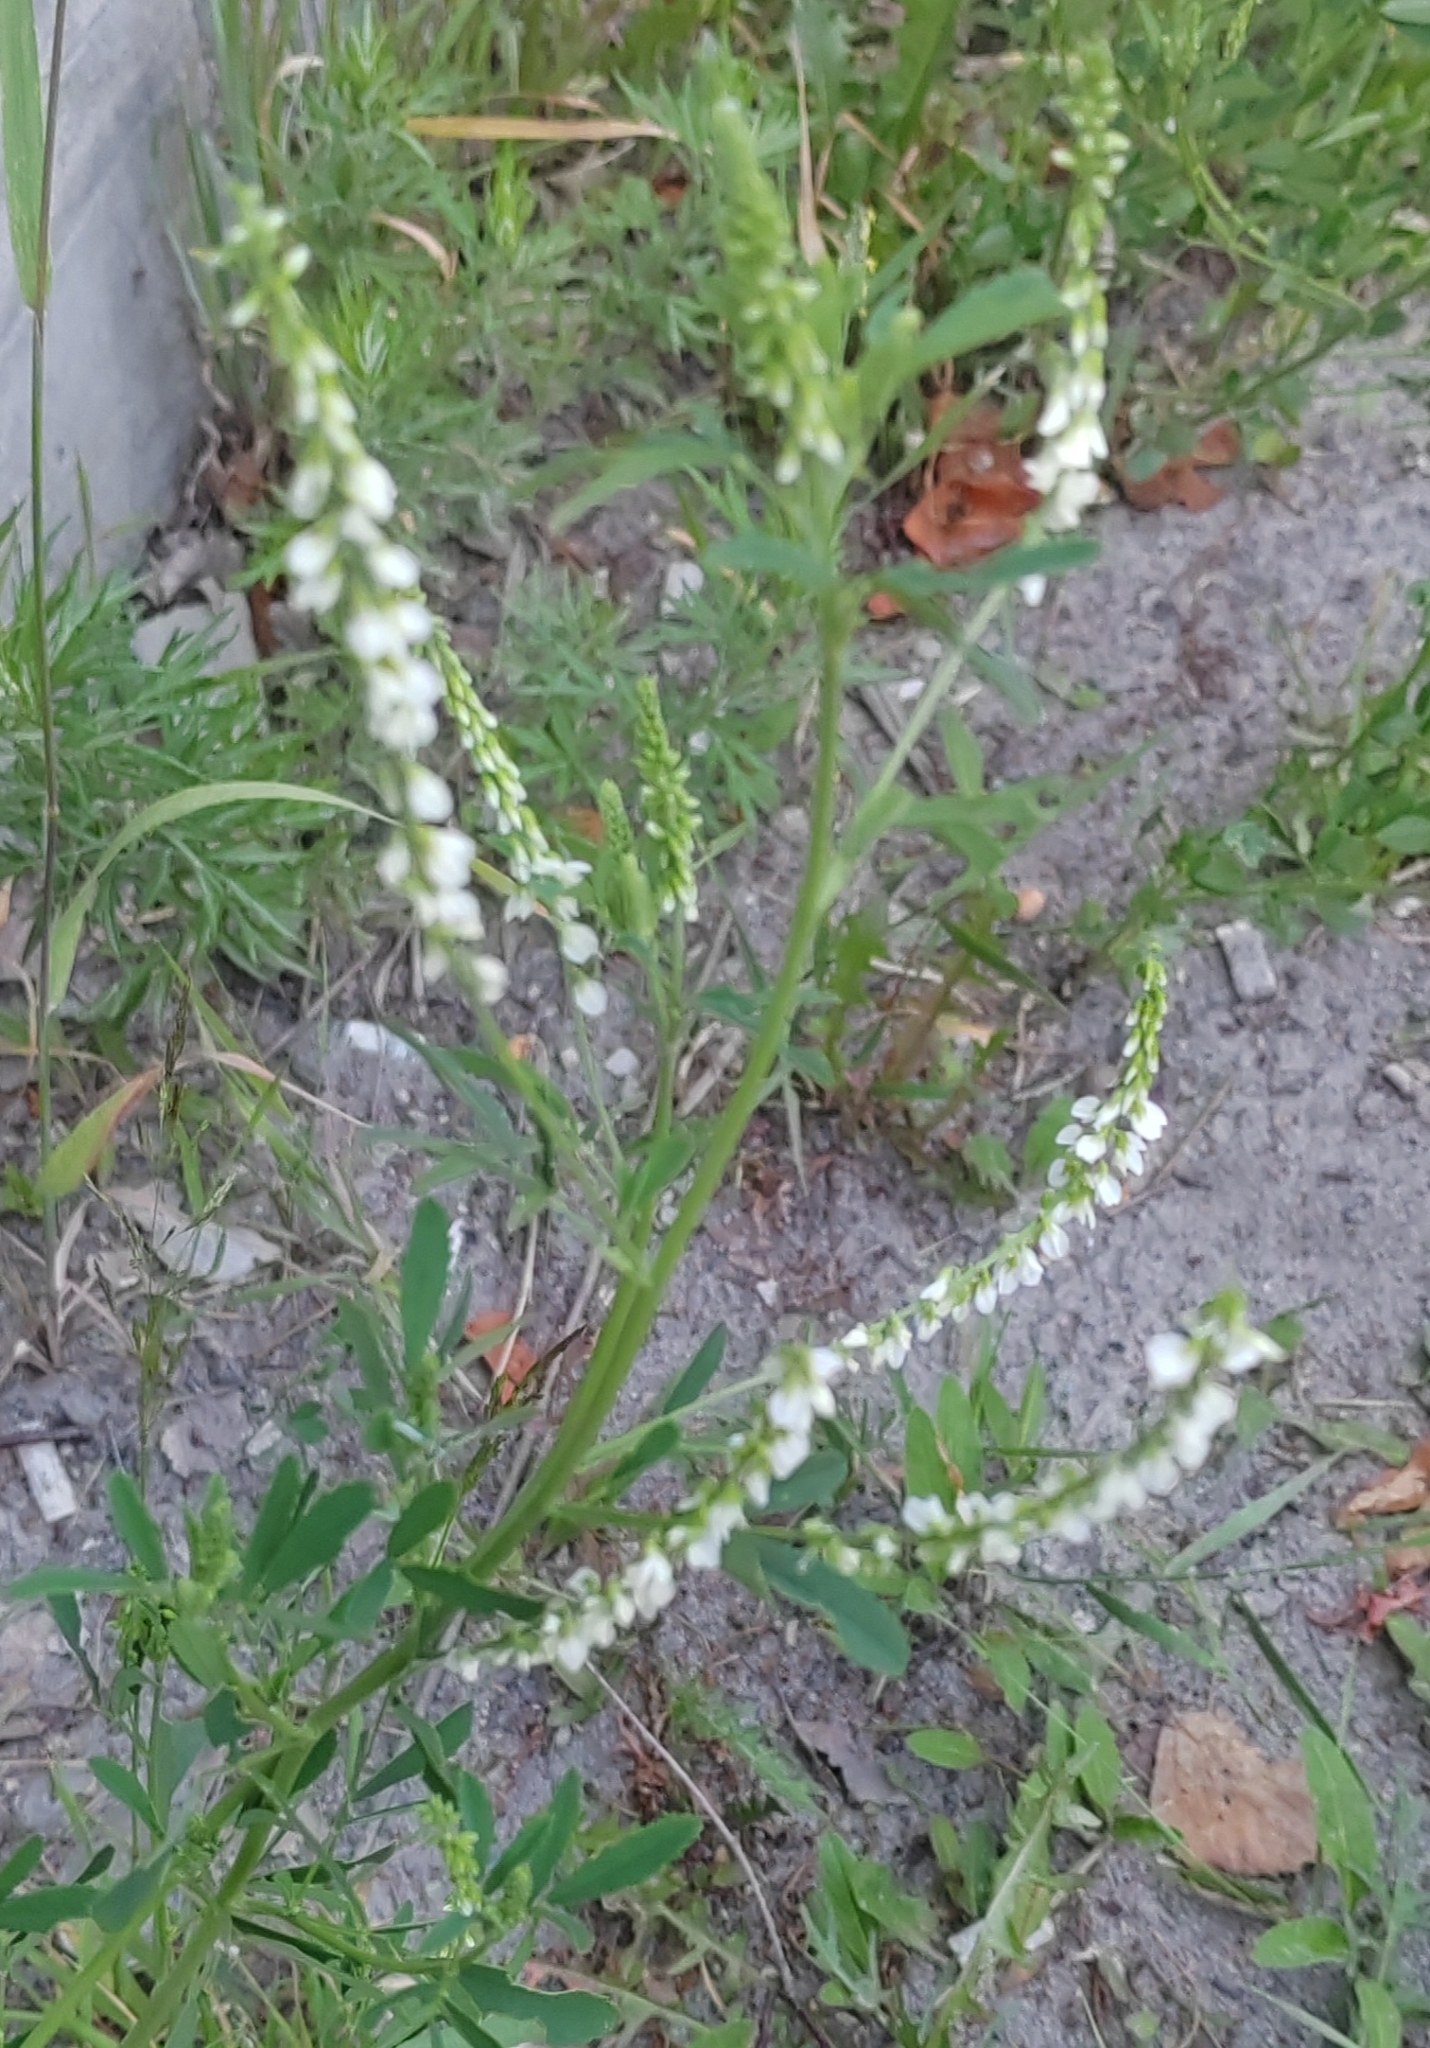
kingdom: Plantae
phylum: Tracheophyta
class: Magnoliopsida
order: Fabales
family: Fabaceae
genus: Melilotus
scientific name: Melilotus albus
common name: White melilot
